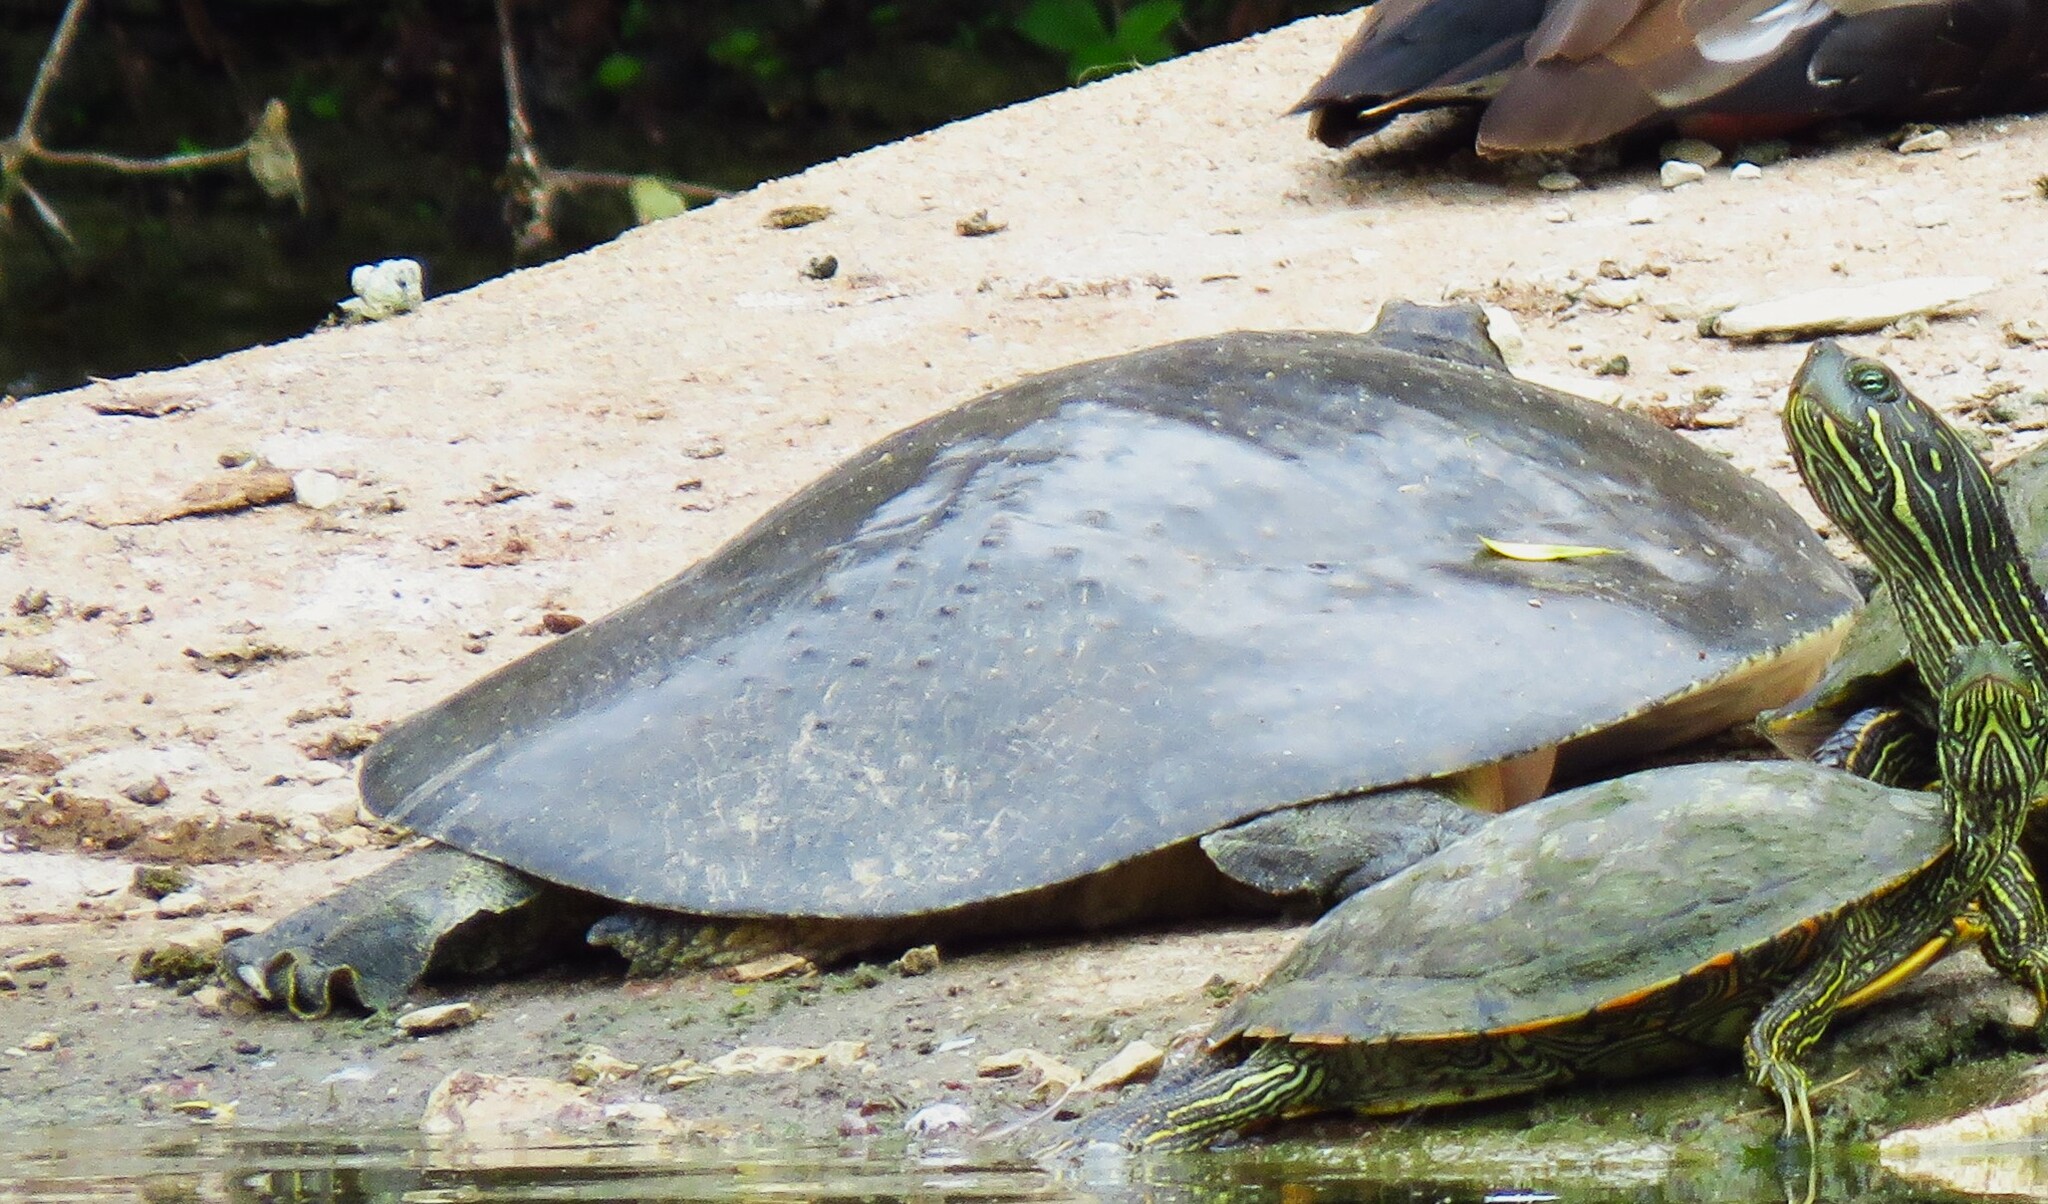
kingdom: Animalia
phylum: Chordata
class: Testudines
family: Trionychidae
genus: Apalone
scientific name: Apalone spinifera
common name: Spiny softshell turtle
